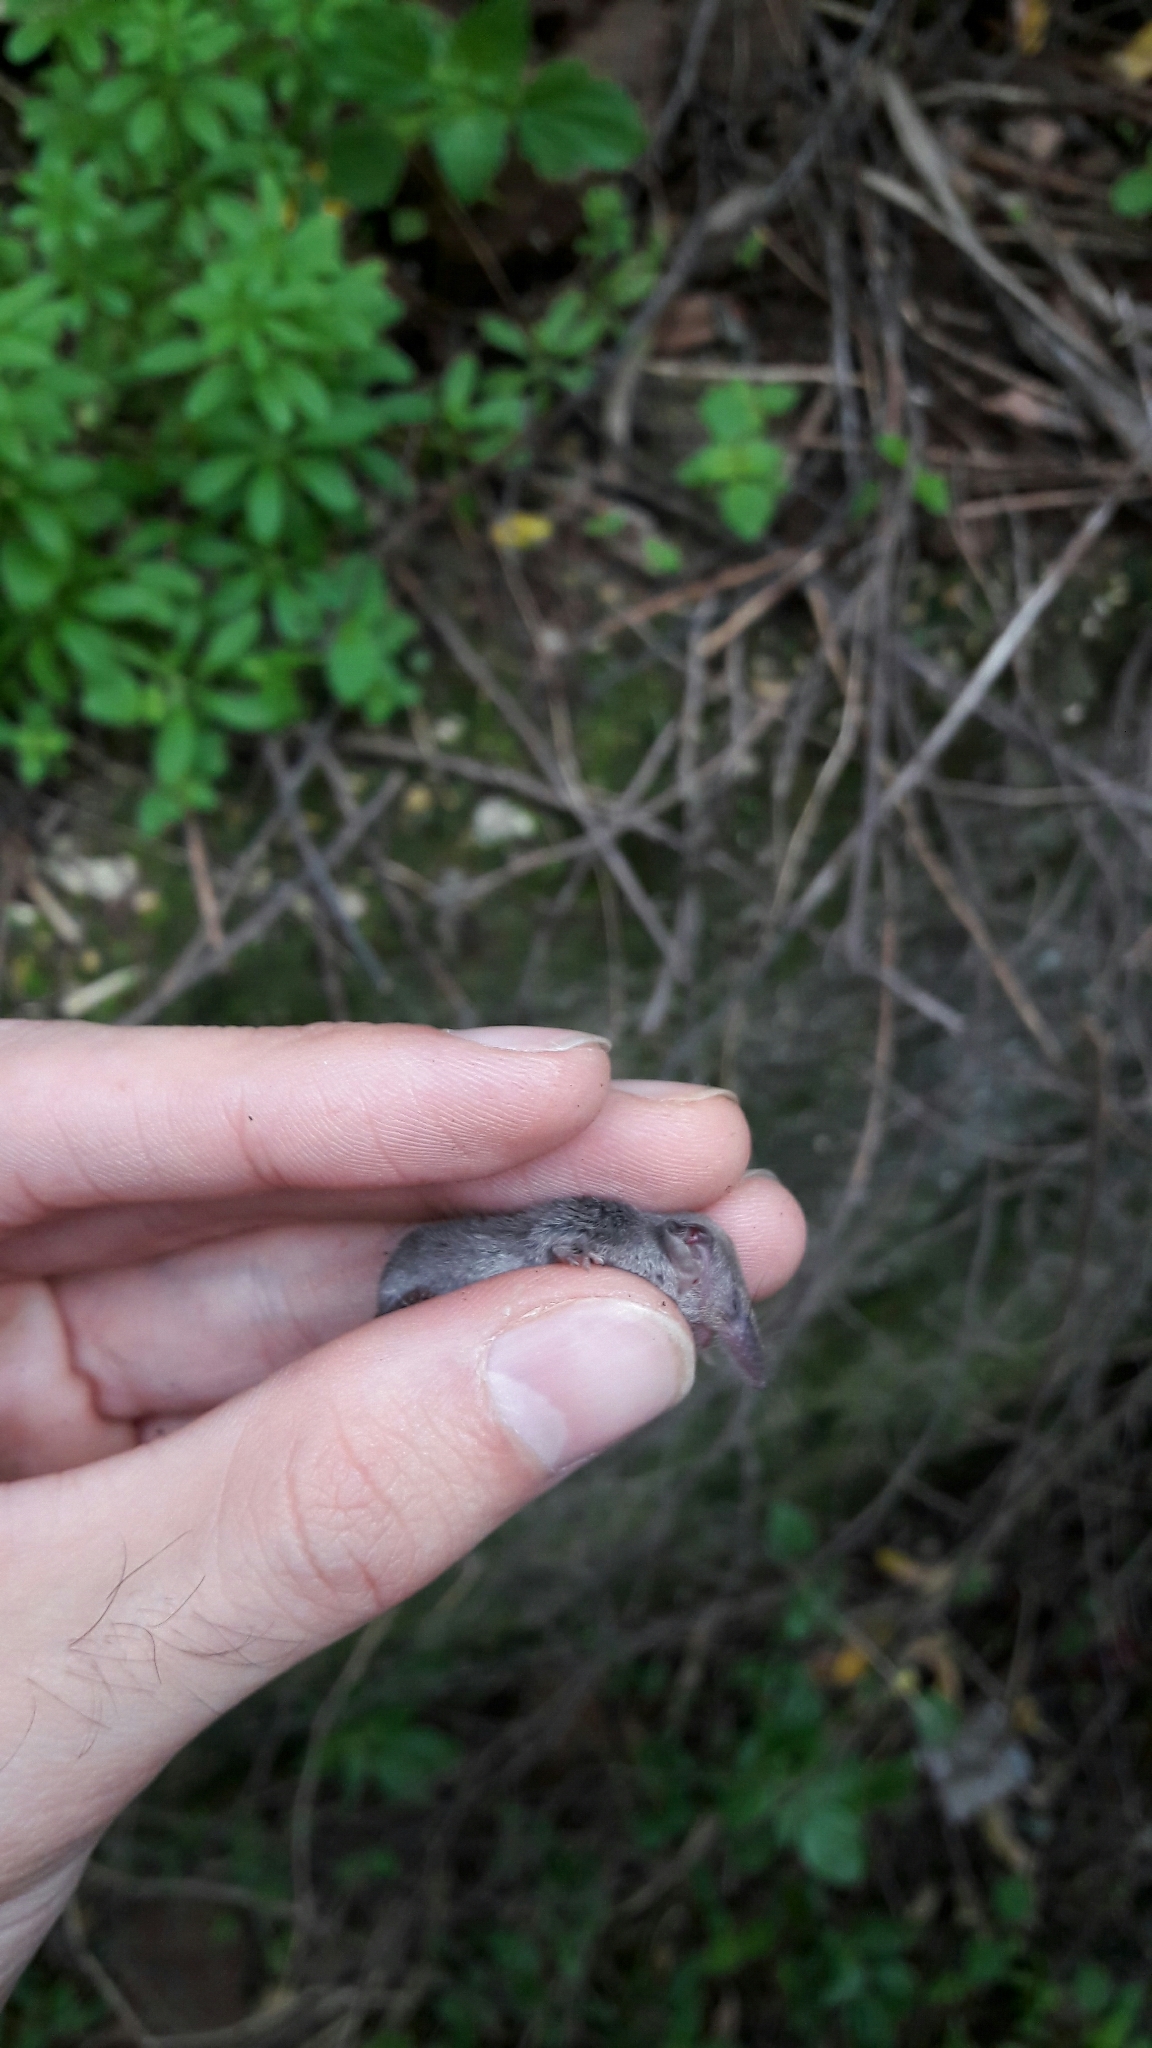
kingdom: Animalia
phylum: Chordata
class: Mammalia
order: Soricomorpha
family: Soricidae
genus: Suncus
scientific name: Suncus etruscus
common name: Etruscan shrew
